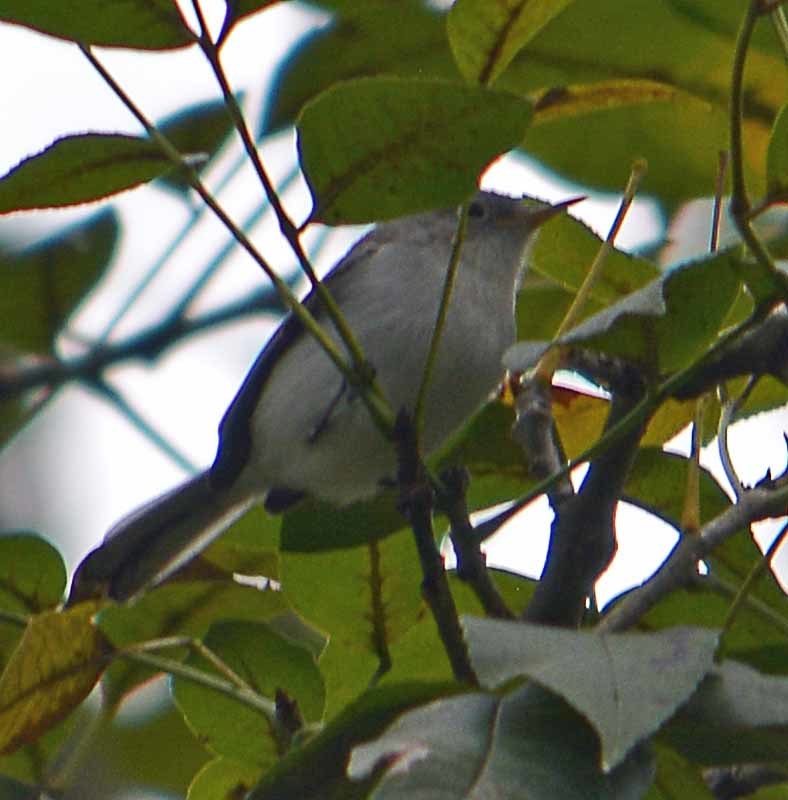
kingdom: Animalia
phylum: Chordata
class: Aves
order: Passeriformes
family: Polioptilidae
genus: Polioptila
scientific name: Polioptila caerulea
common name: Blue-gray gnatcatcher
